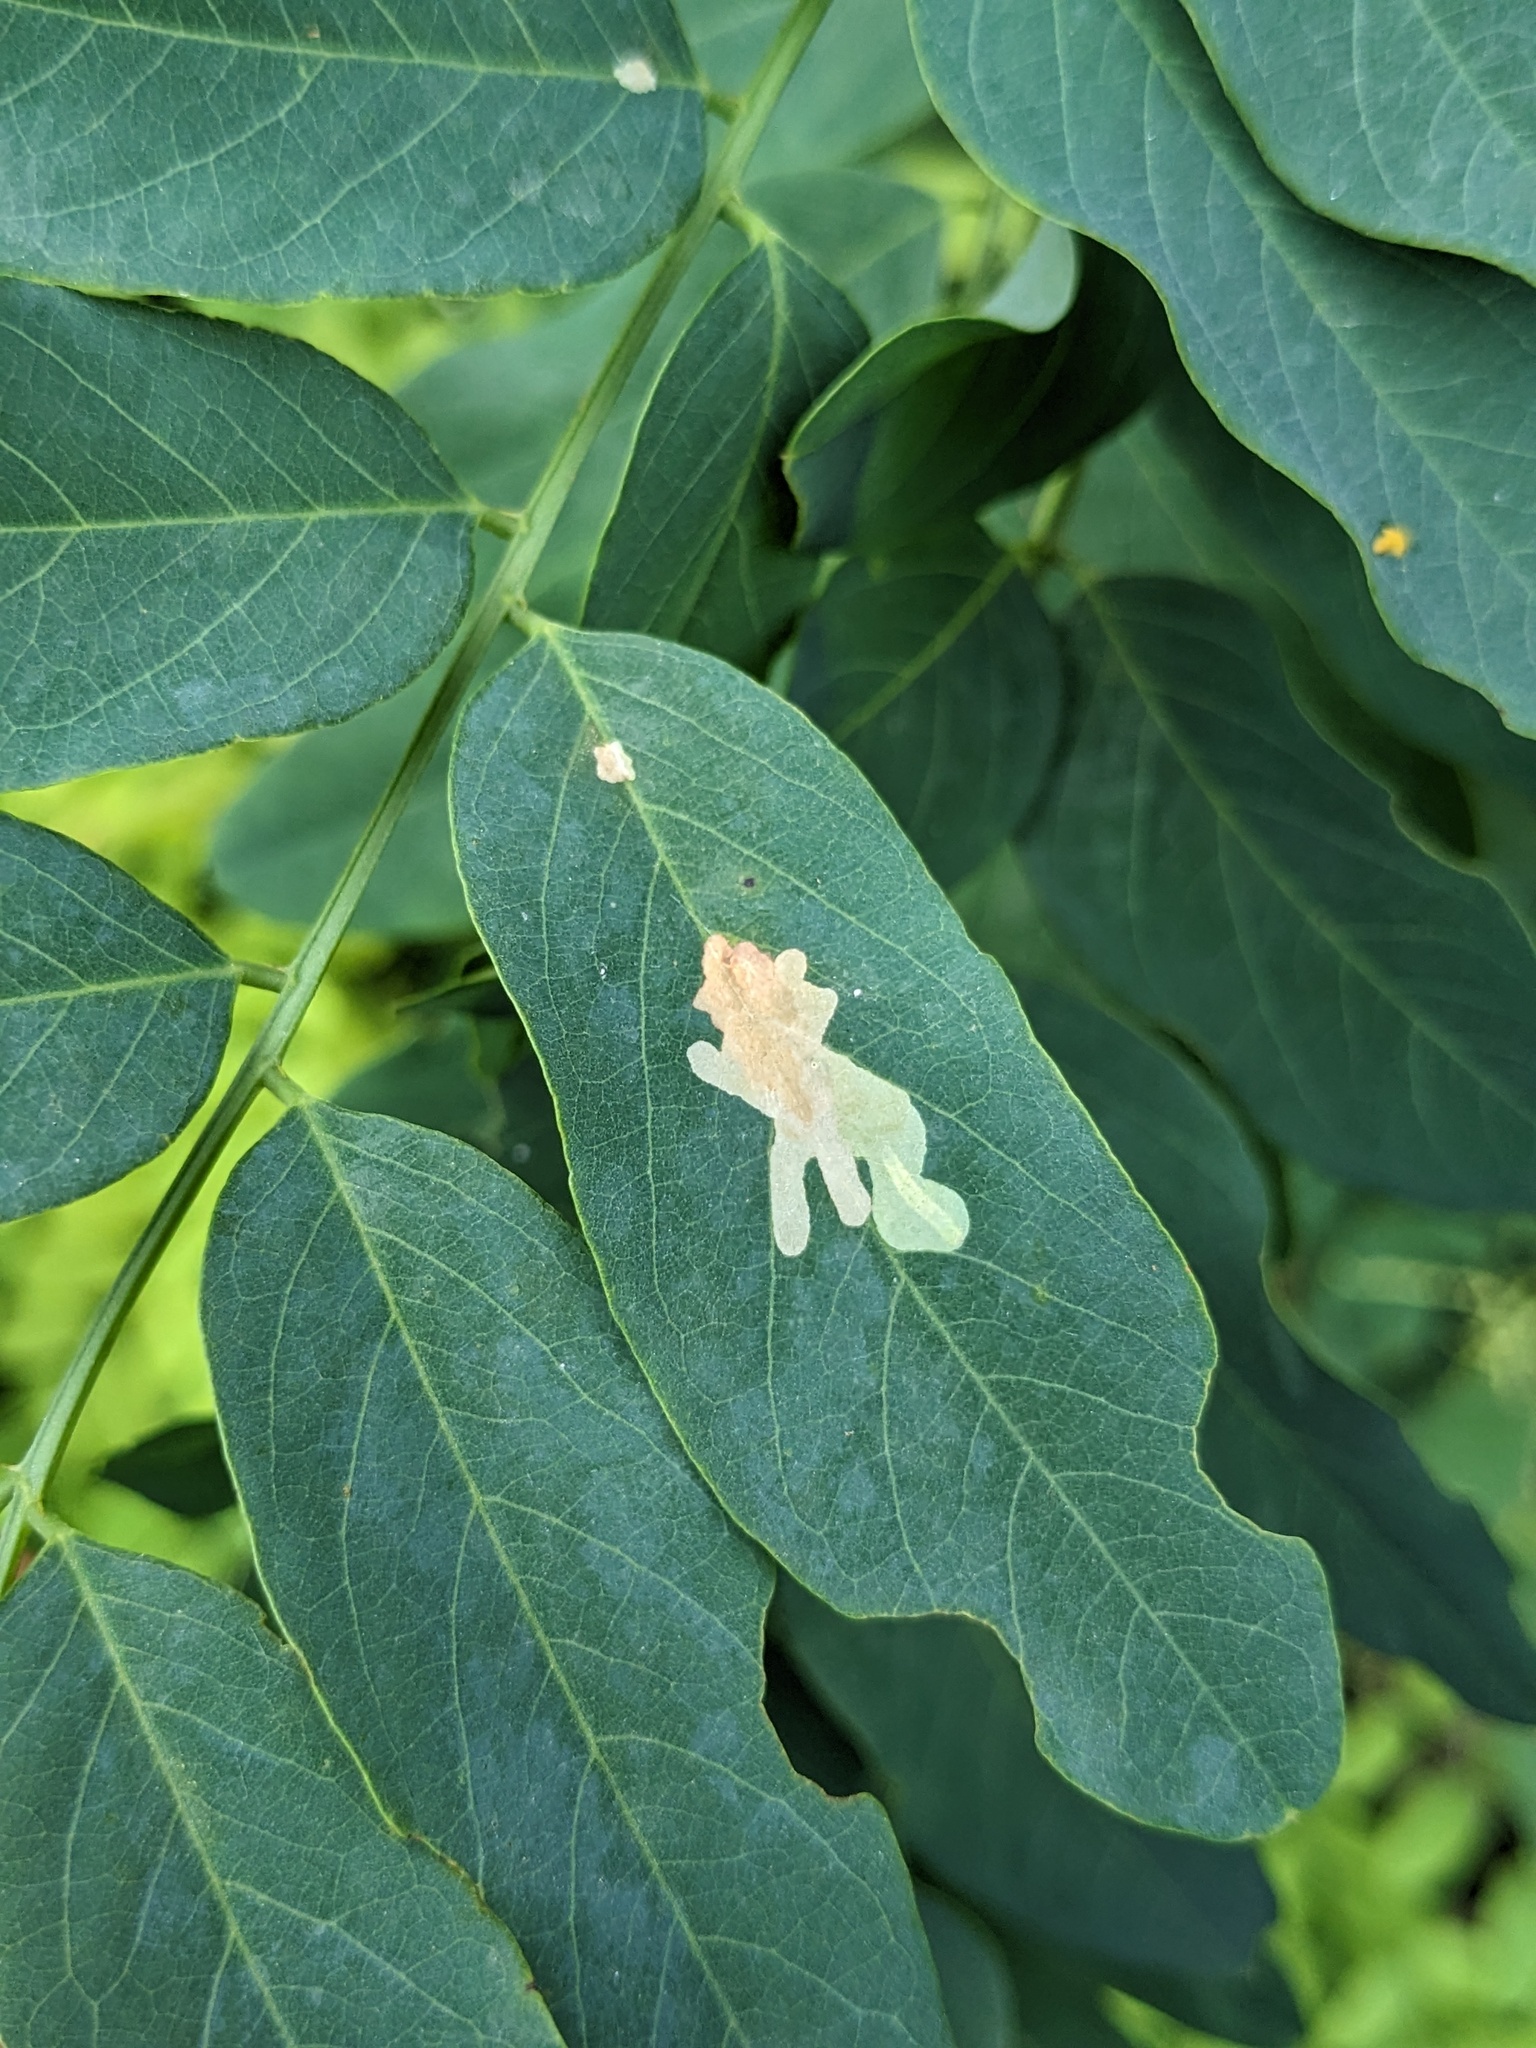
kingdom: Animalia
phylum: Arthropoda
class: Insecta
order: Lepidoptera
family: Gracillariidae
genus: Parectopa
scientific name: Parectopa robiniella
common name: Locust digitate leafminer
